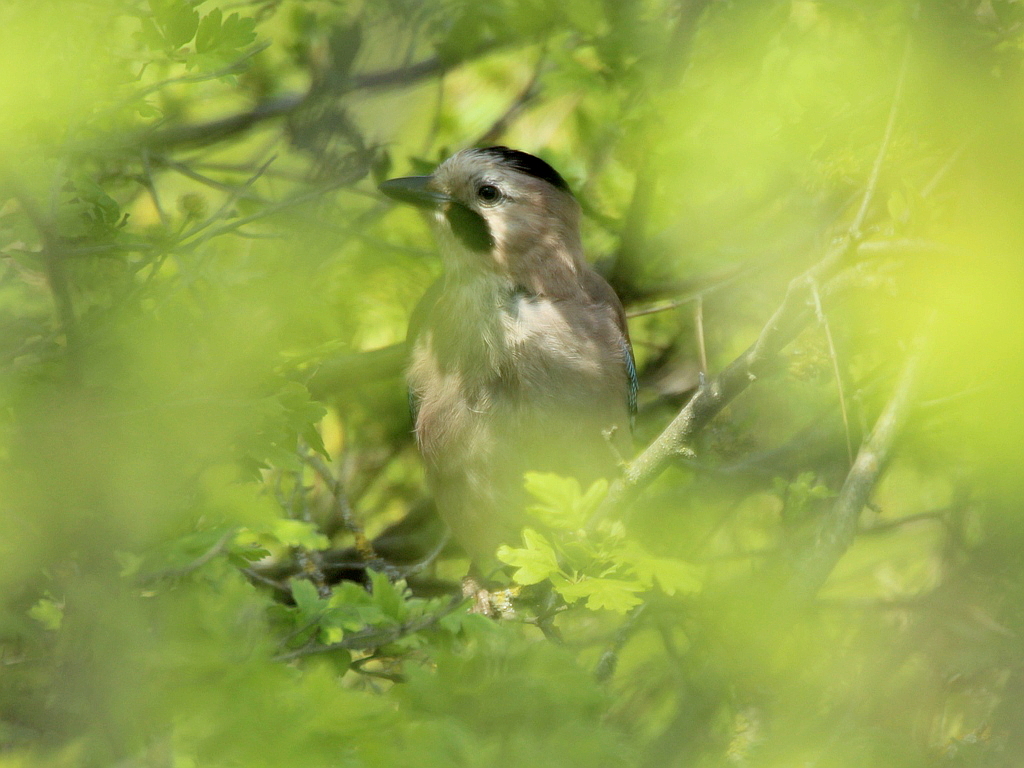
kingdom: Animalia
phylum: Chordata
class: Aves
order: Passeriformes
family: Corvidae
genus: Garrulus
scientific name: Garrulus glandarius
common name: Eurasian jay
